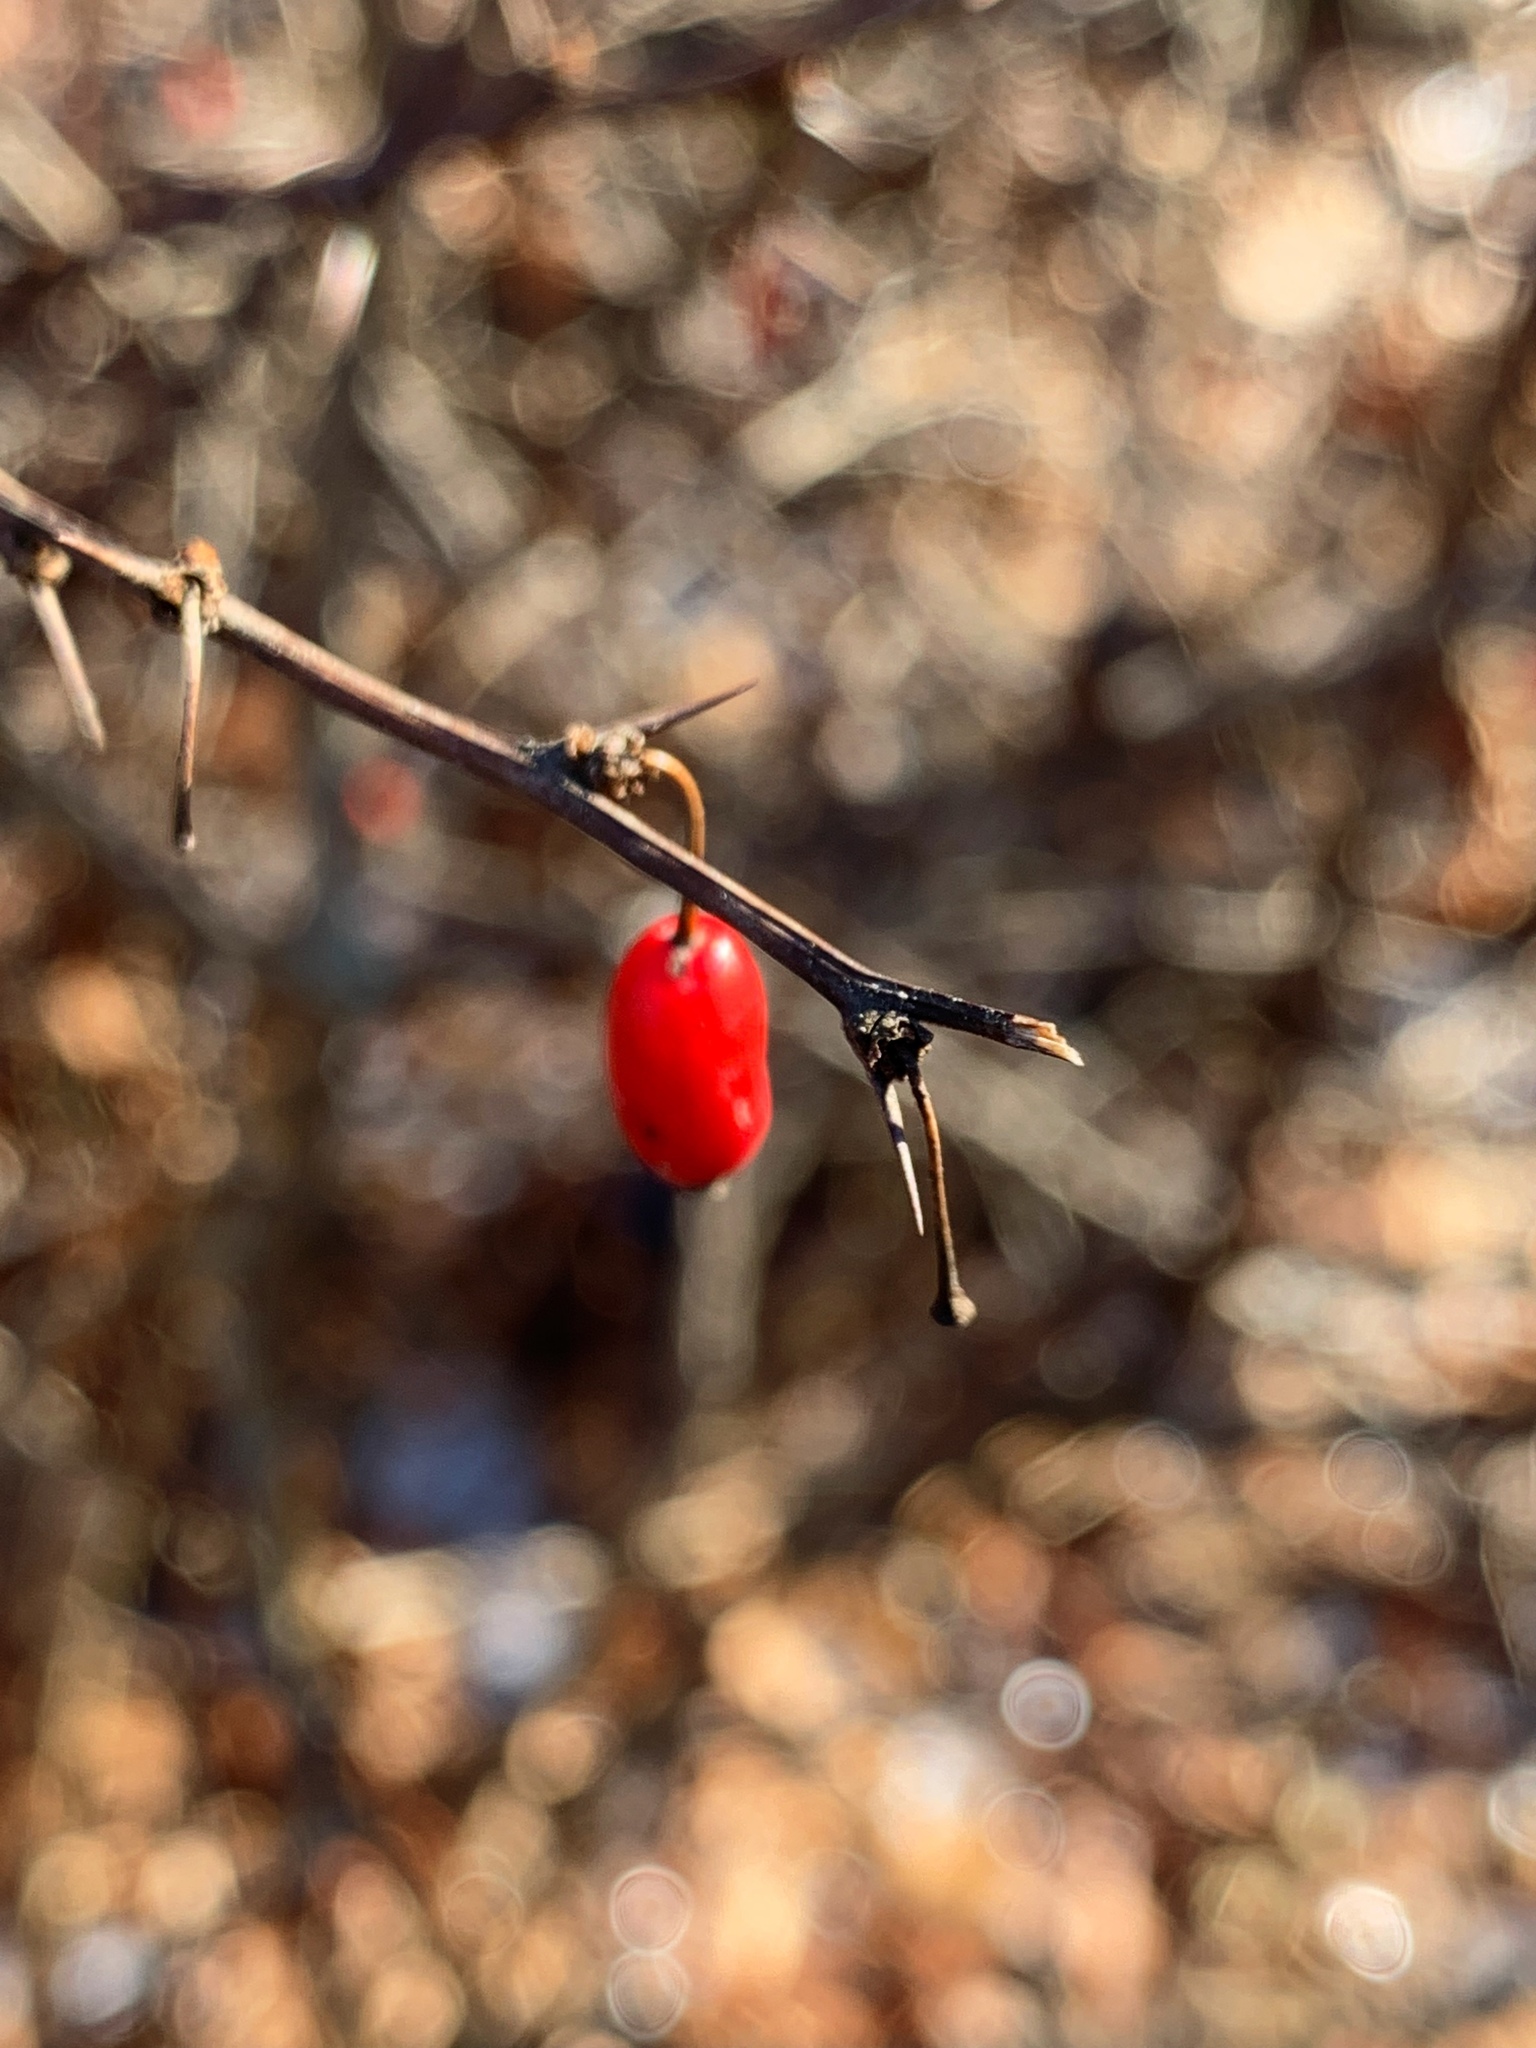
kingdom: Plantae
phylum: Tracheophyta
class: Magnoliopsida
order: Ranunculales
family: Berberidaceae
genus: Berberis
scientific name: Berberis thunbergii
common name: Japanese barberry
